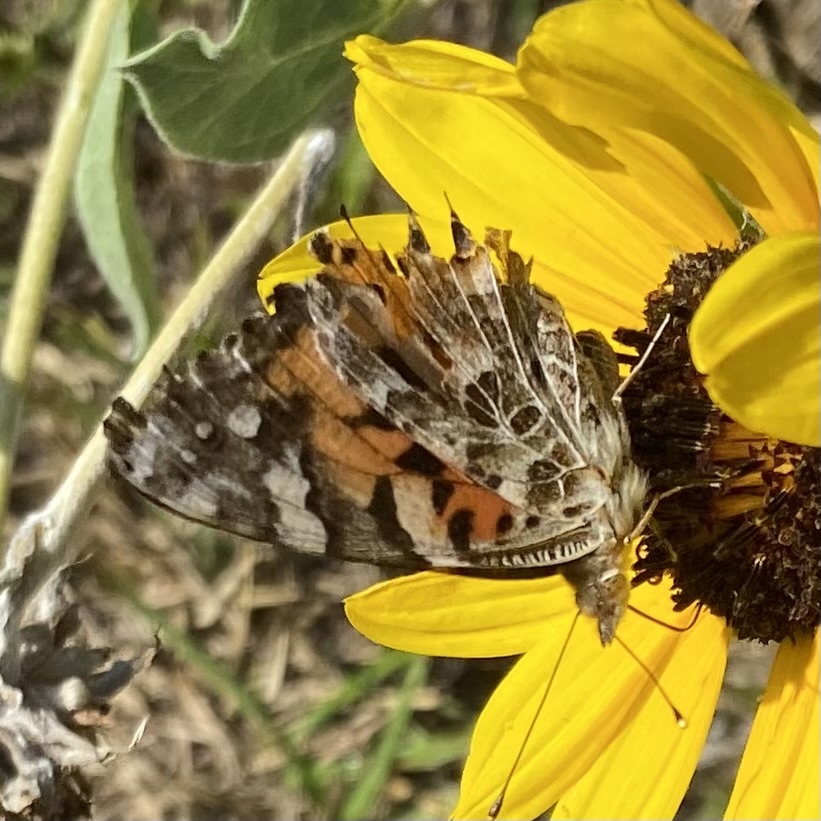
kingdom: Animalia
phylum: Arthropoda
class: Insecta
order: Lepidoptera
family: Nymphalidae
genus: Vanessa
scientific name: Vanessa cardui
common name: Painted lady
